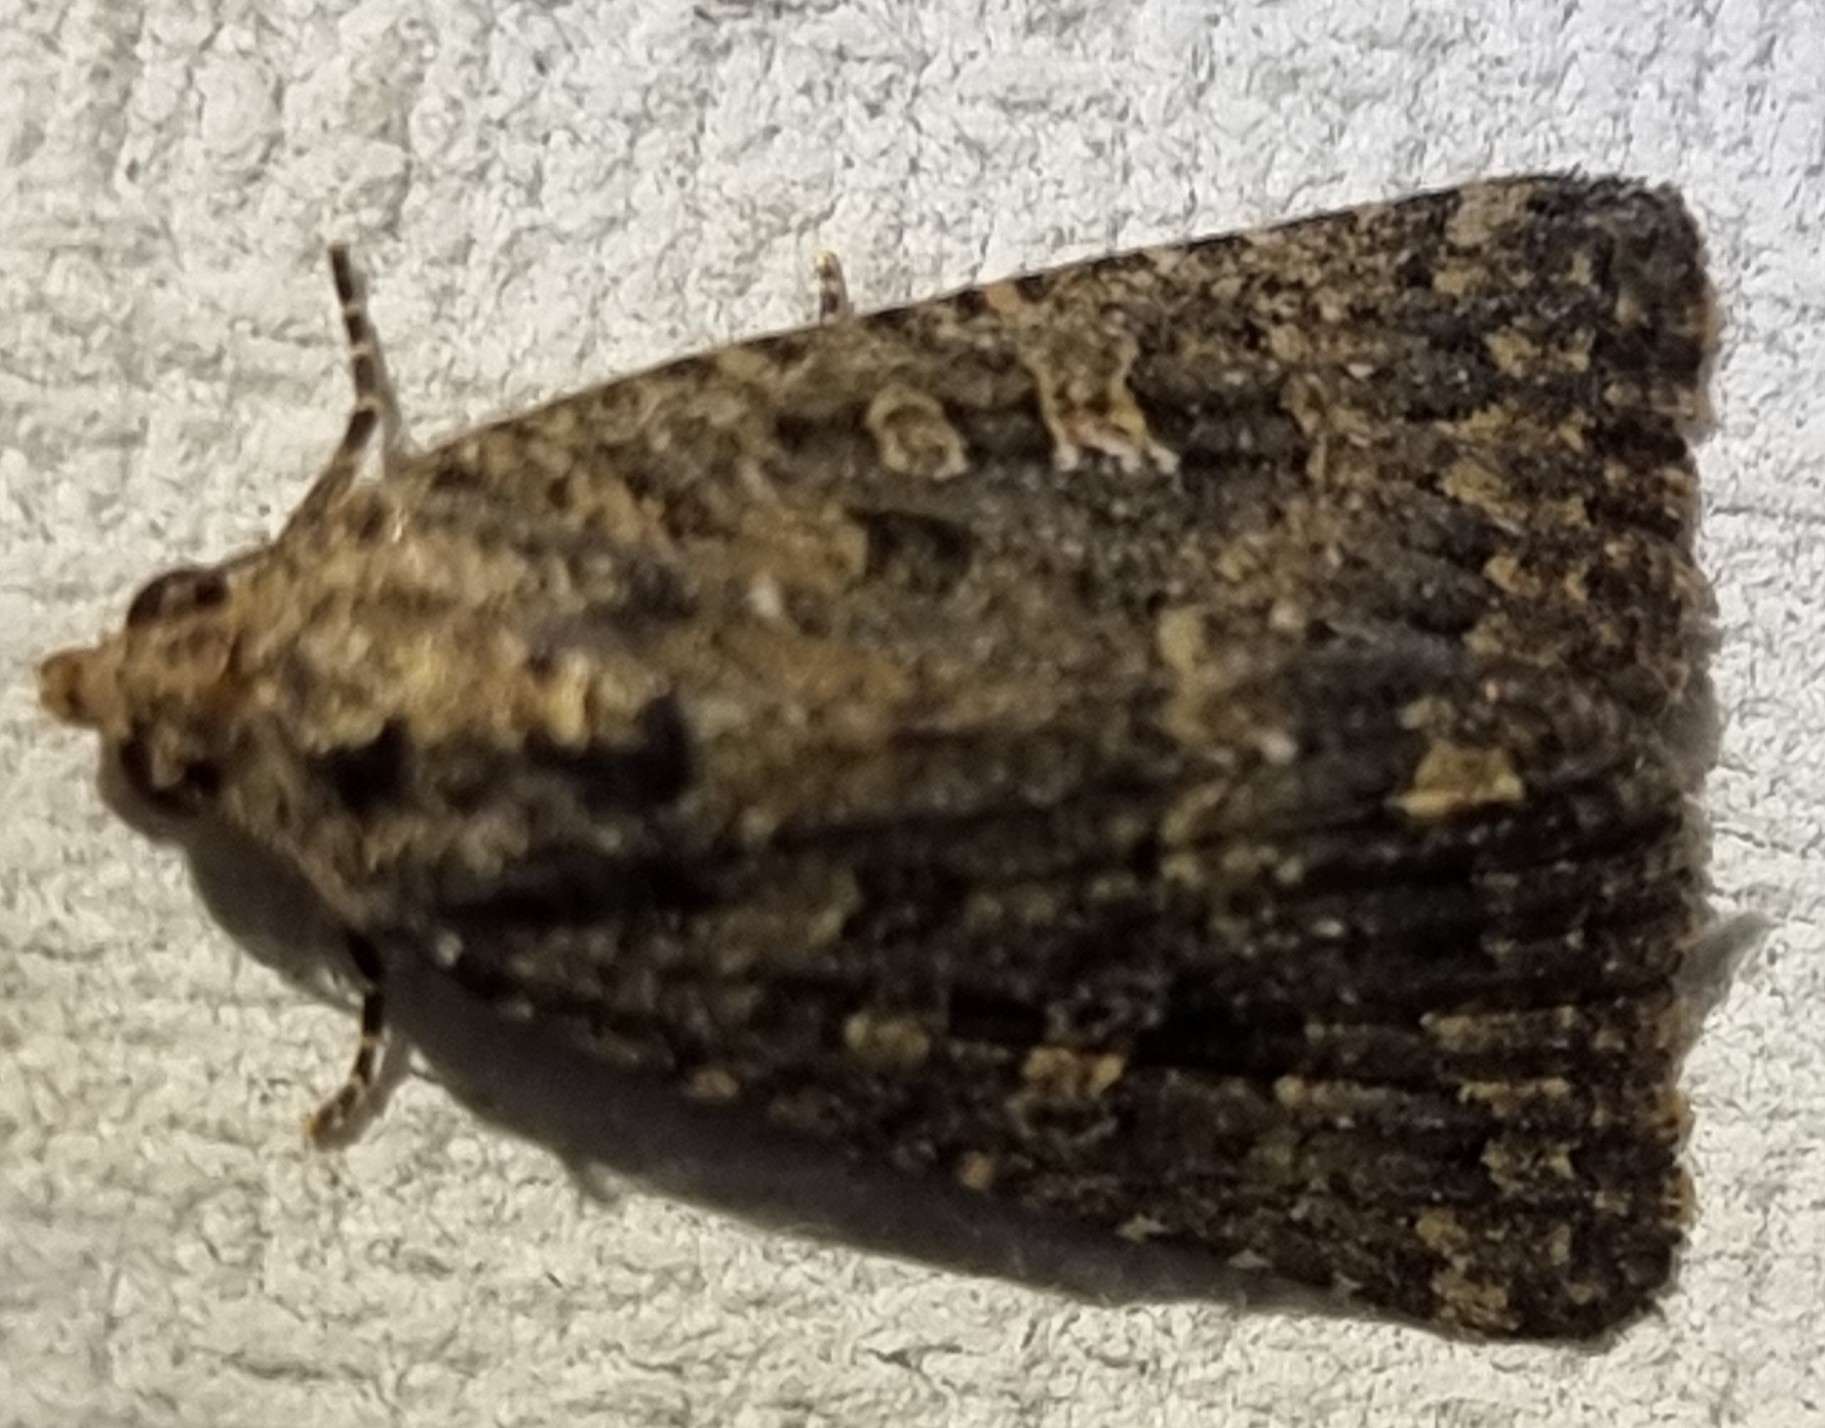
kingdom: Animalia
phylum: Arthropoda
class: Insecta
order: Lepidoptera
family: Noctuidae
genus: Hypoperigea
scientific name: Hypoperigea tonsa
